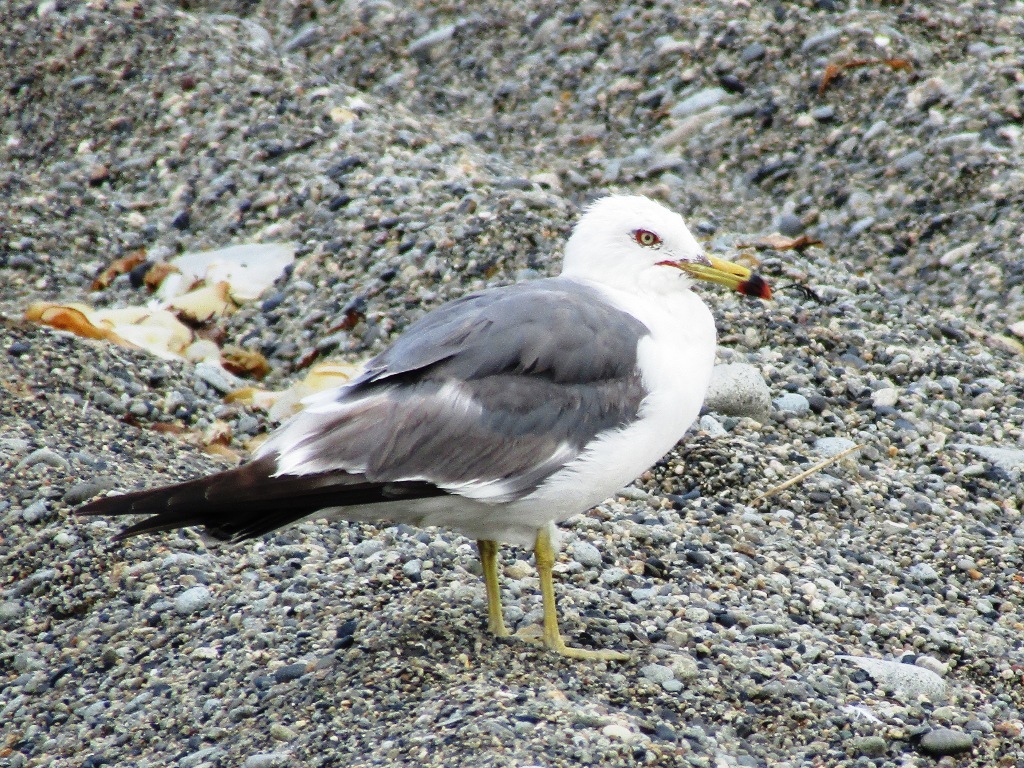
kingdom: Animalia
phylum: Chordata
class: Aves
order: Charadriiformes
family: Laridae
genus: Larus
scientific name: Larus crassirostris
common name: Black-tailed gull
